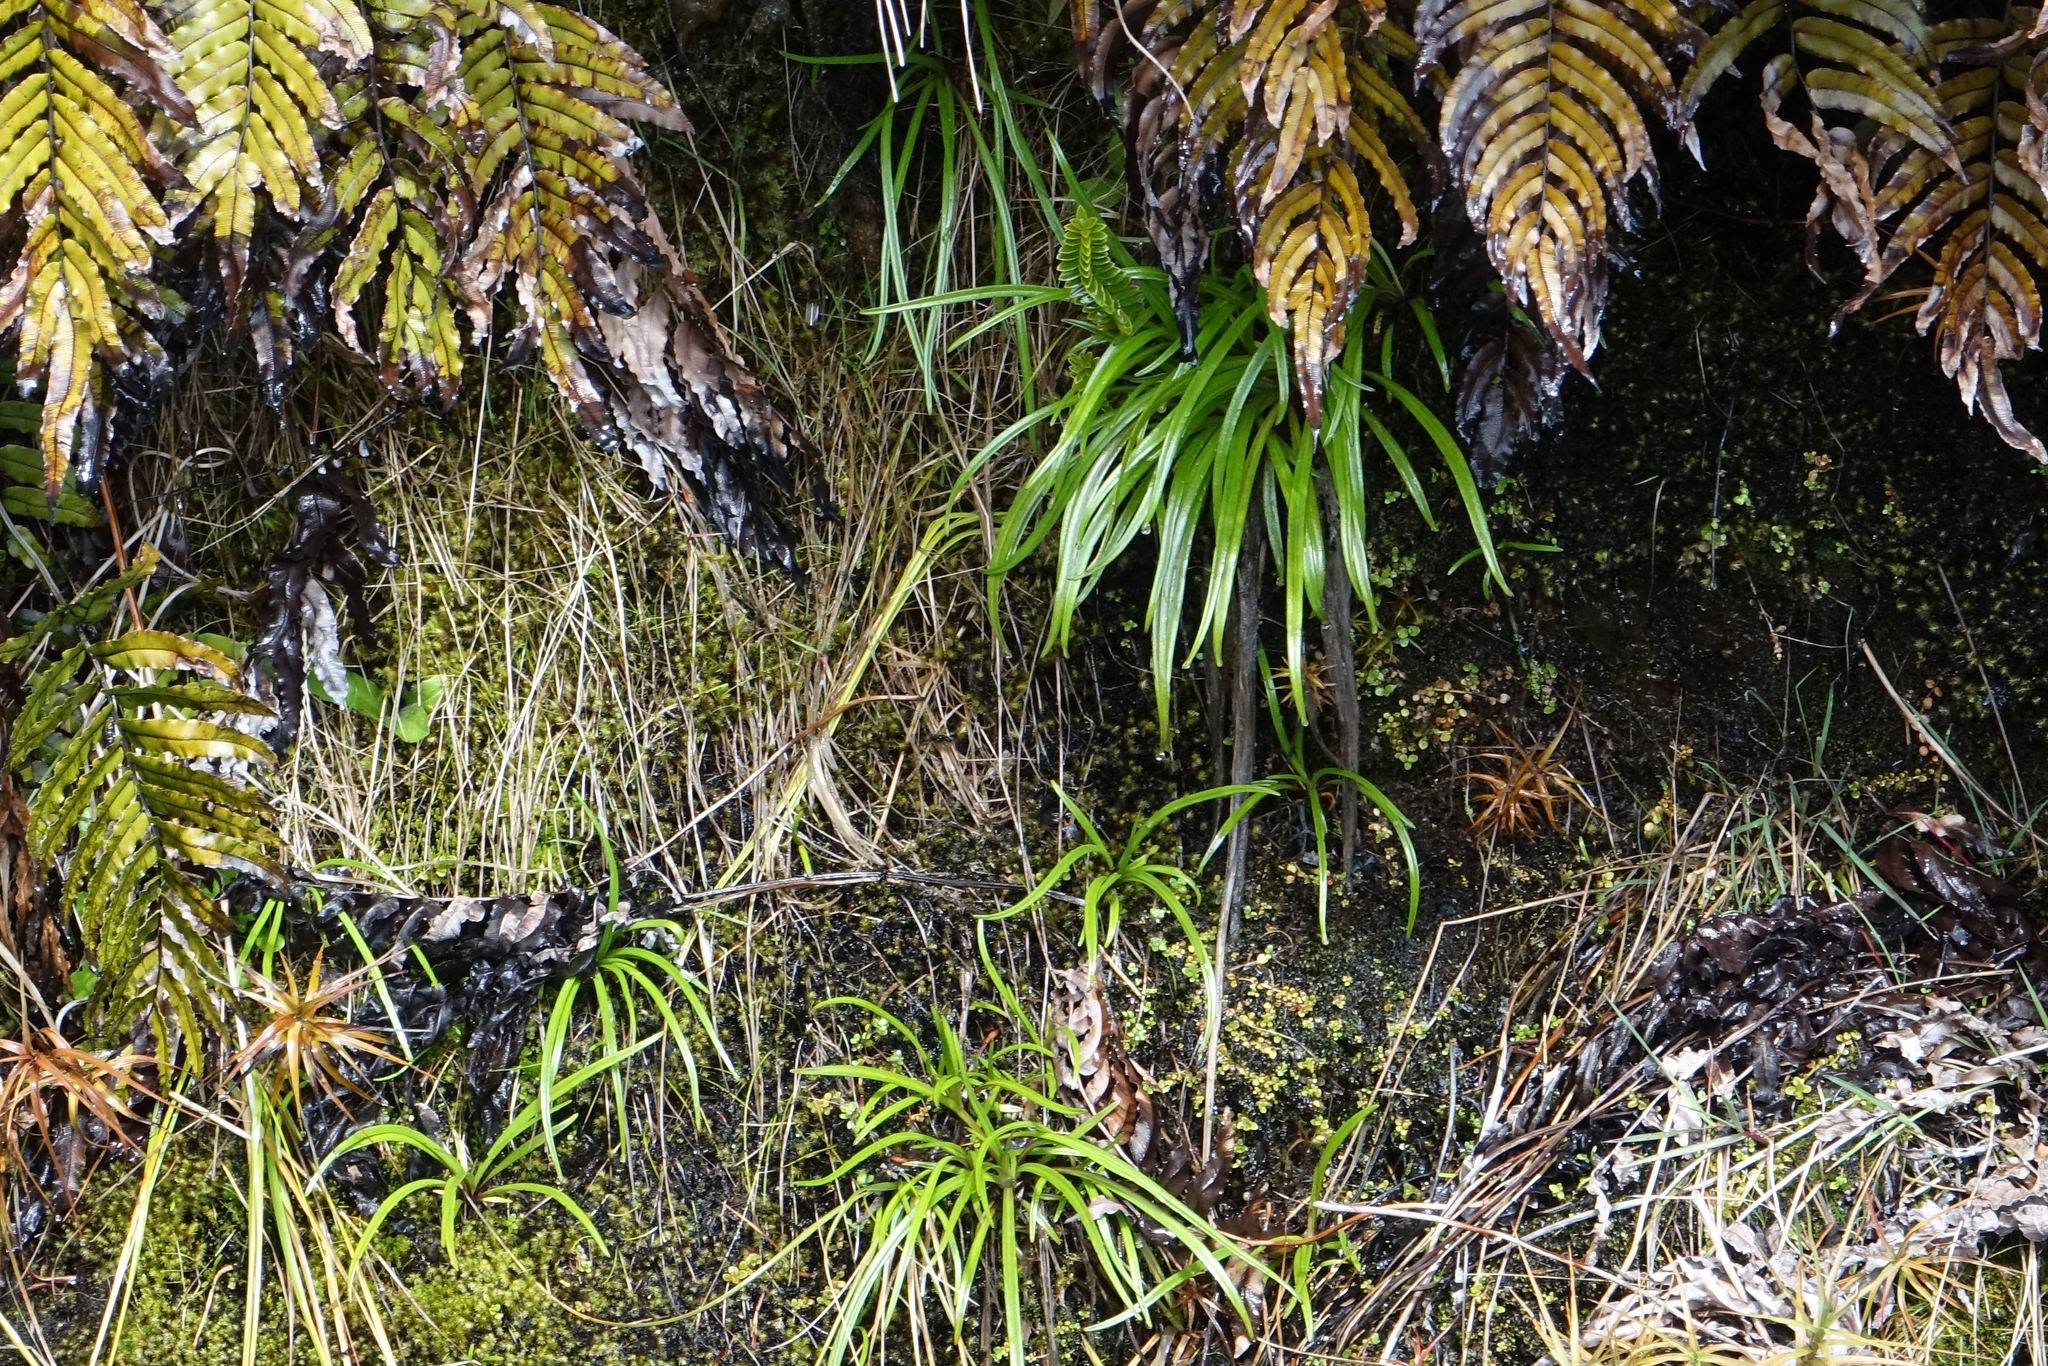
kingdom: Plantae
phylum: Tracheophyta
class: Magnoliopsida
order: Asterales
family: Asteraceae
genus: Dolichoglottis
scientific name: Dolichoglottis lyallii
